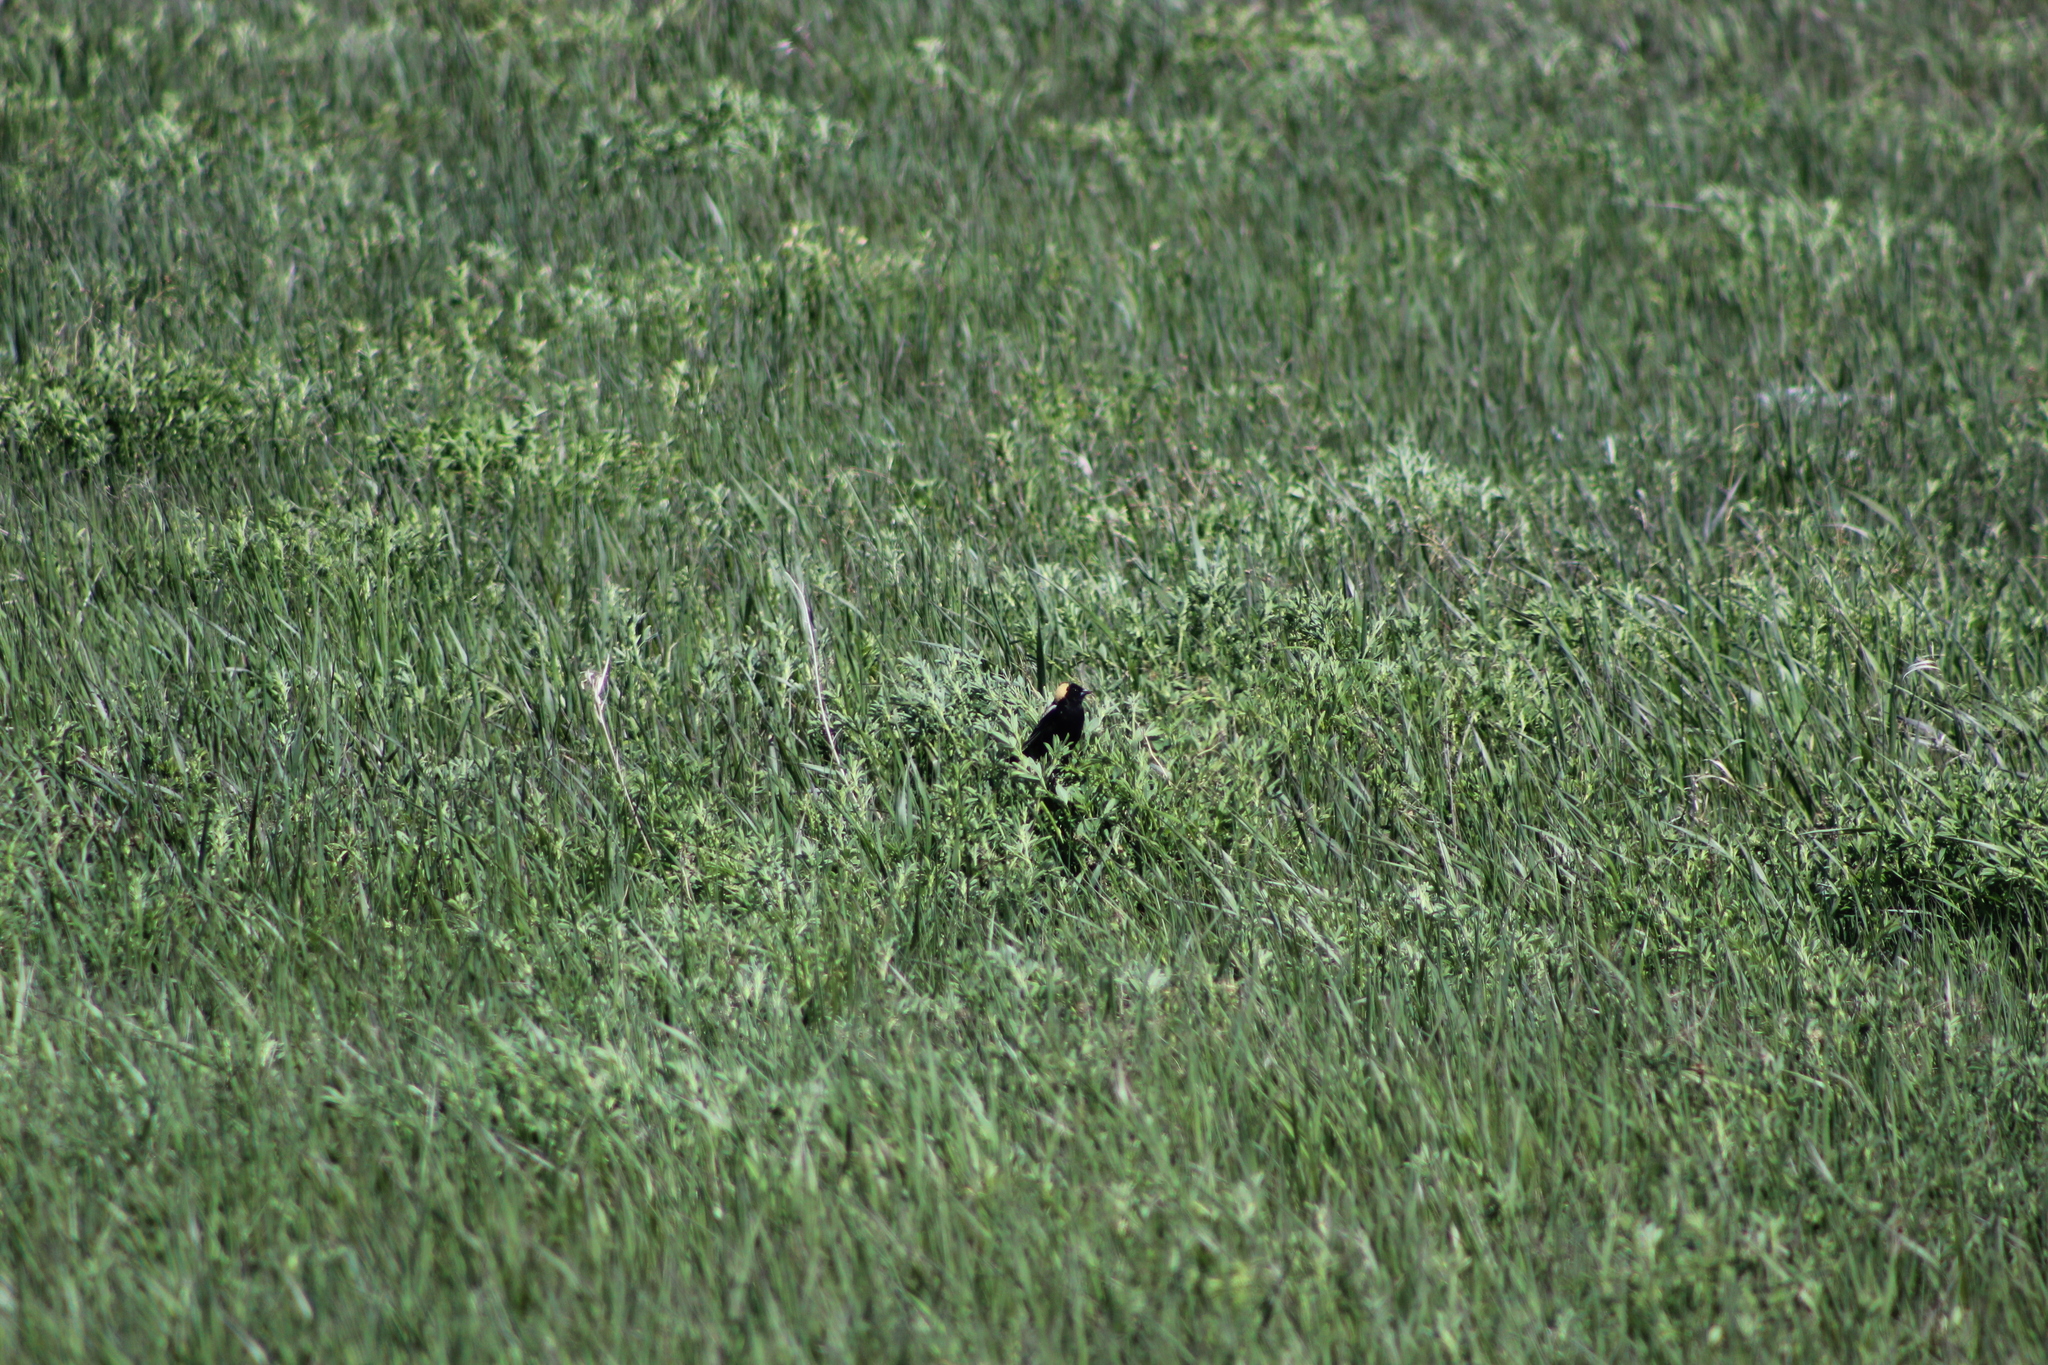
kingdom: Animalia
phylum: Chordata
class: Aves
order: Passeriformes
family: Icteridae
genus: Dolichonyx
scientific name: Dolichonyx oryzivorus
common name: Bobolink
